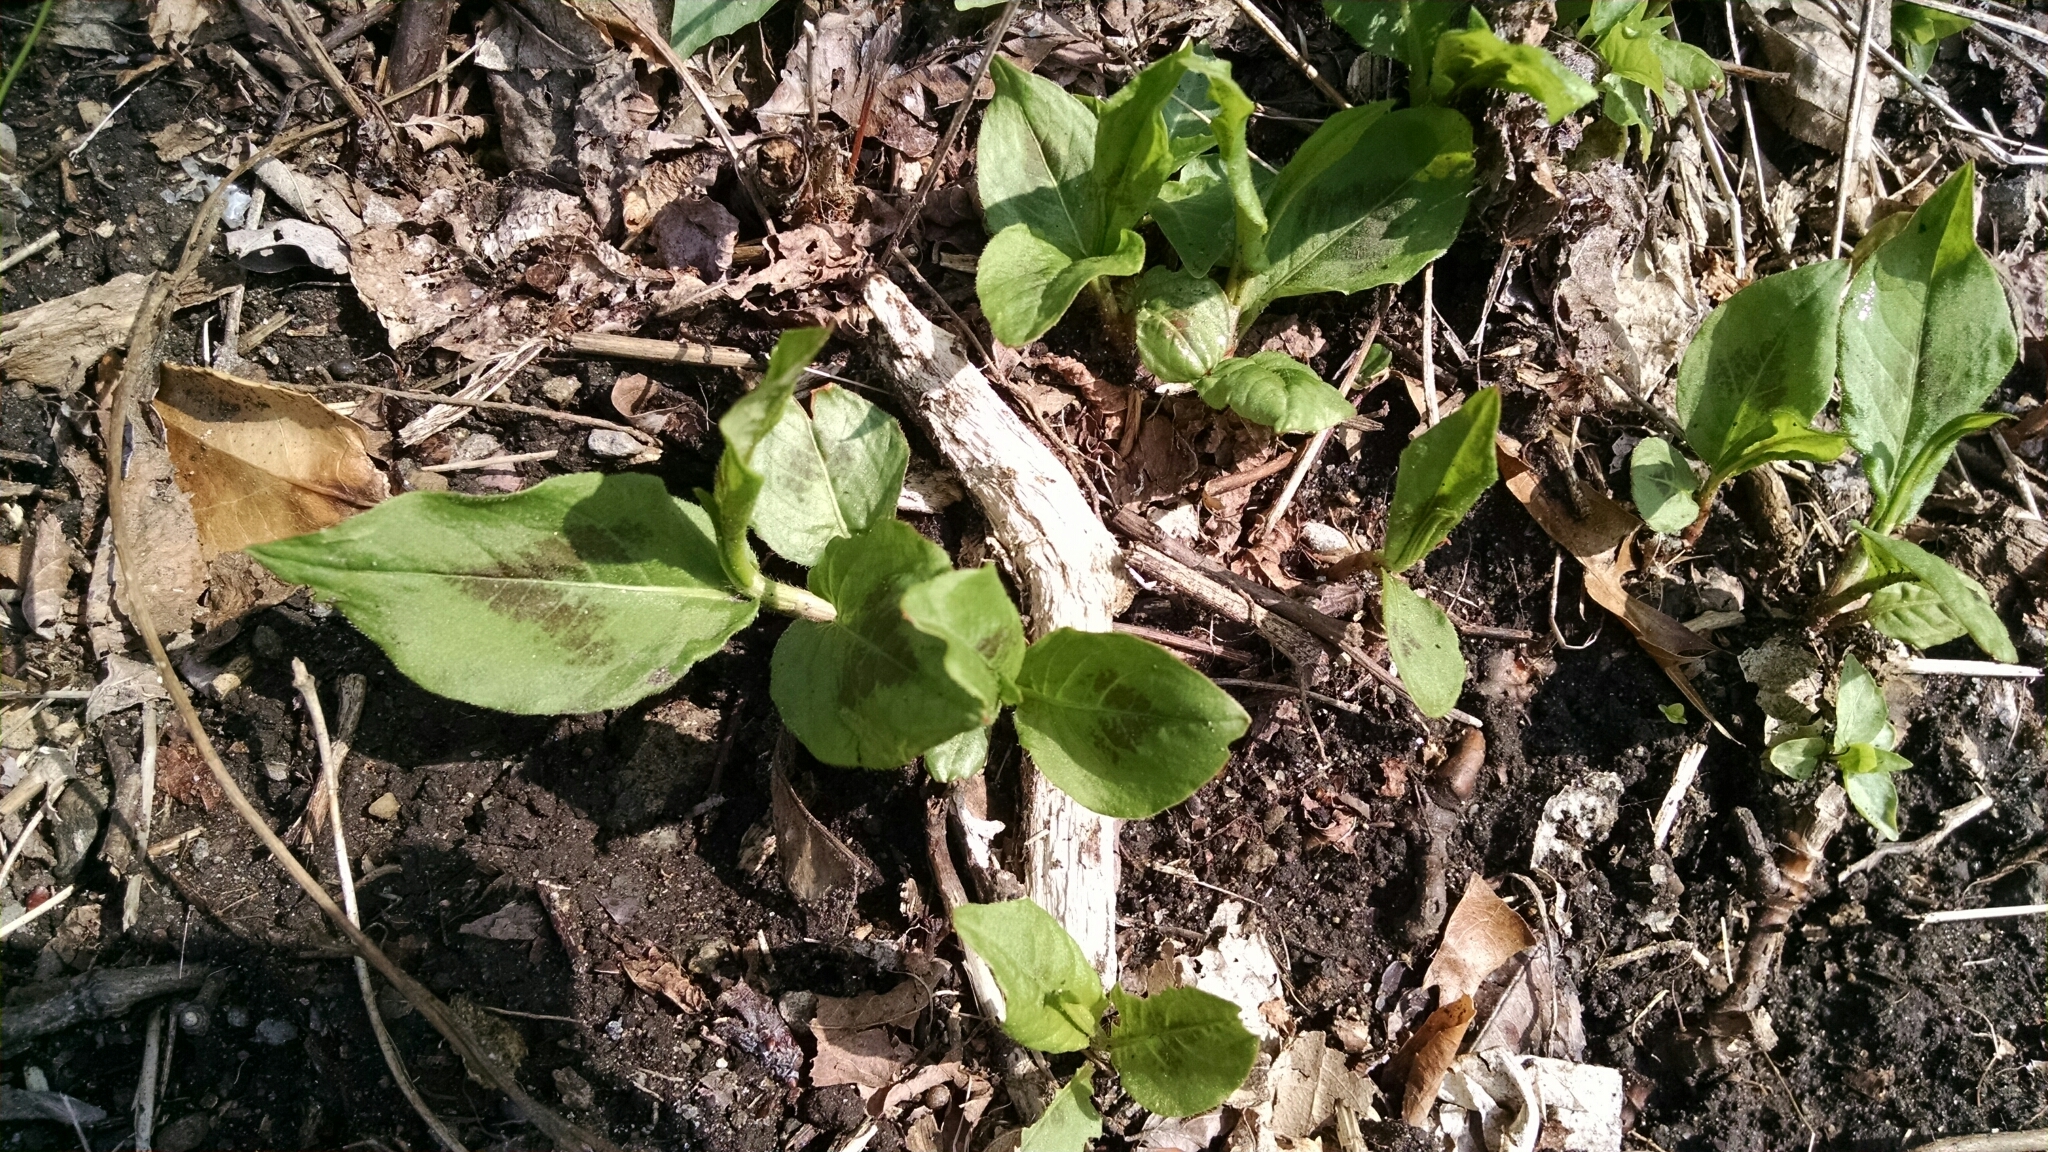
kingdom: Plantae
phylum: Tracheophyta
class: Magnoliopsida
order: Caryophyllales
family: Polygonaceae
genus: Persicaria
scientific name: Persicaria virginiana
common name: Jumpseed
